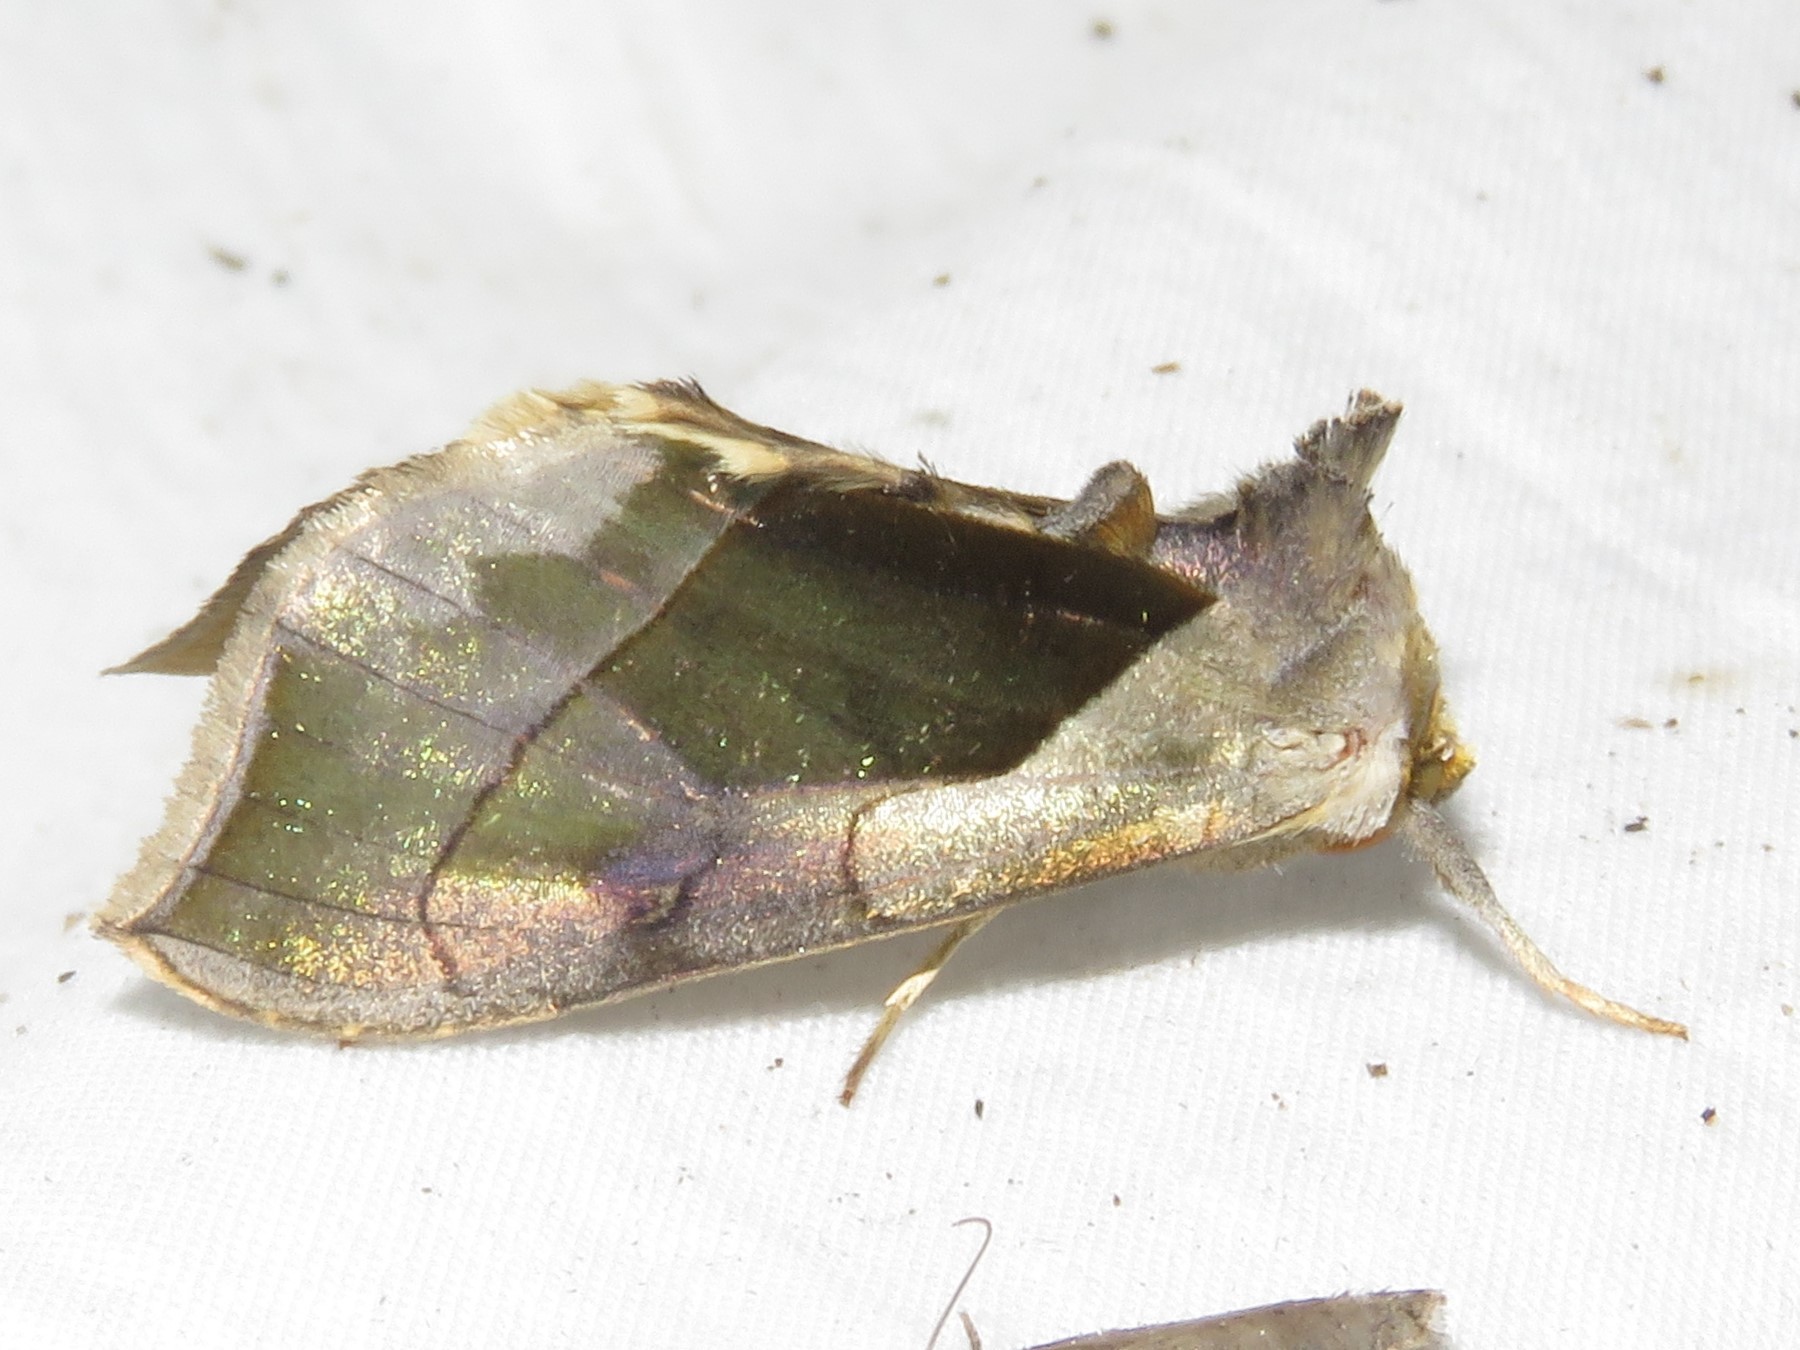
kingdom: Animalia
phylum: Arthropoda
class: Insecta
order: Lepidoptera
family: Noctuidae
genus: Diachrysia
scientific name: Diachrysia balluca
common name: Green-patched looper moth
